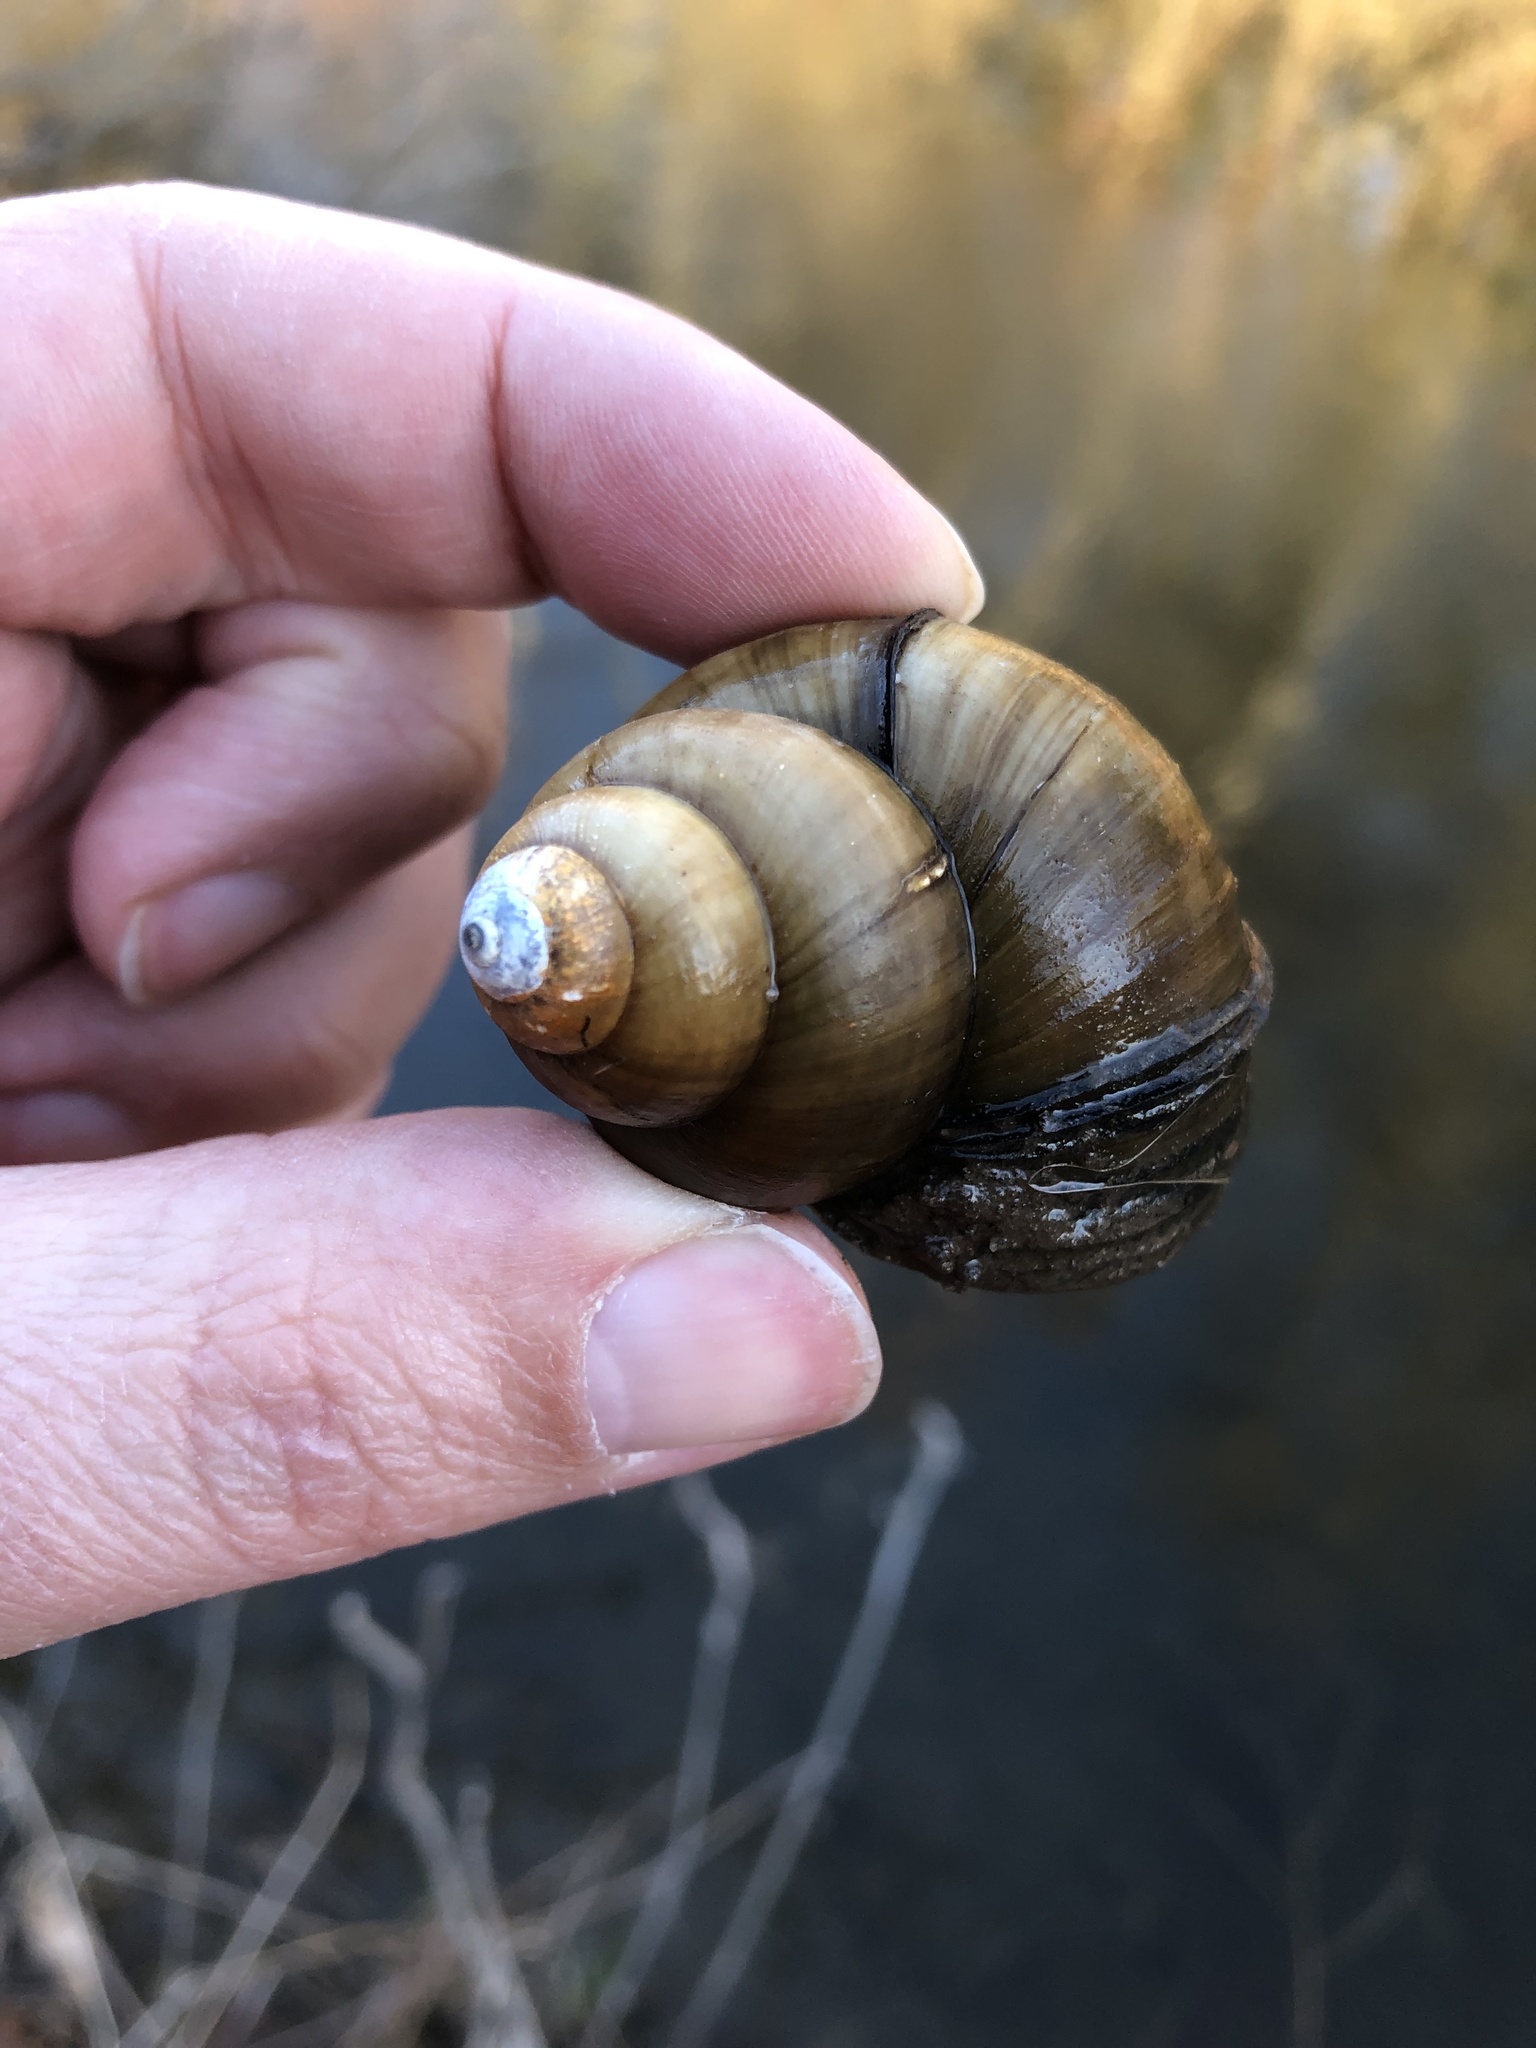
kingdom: Animalia
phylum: Mollusca
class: Gastropoda
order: Architaenioglossa
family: Viviparidae
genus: Cipangopaludina
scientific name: Cipangopaludina chinensis
